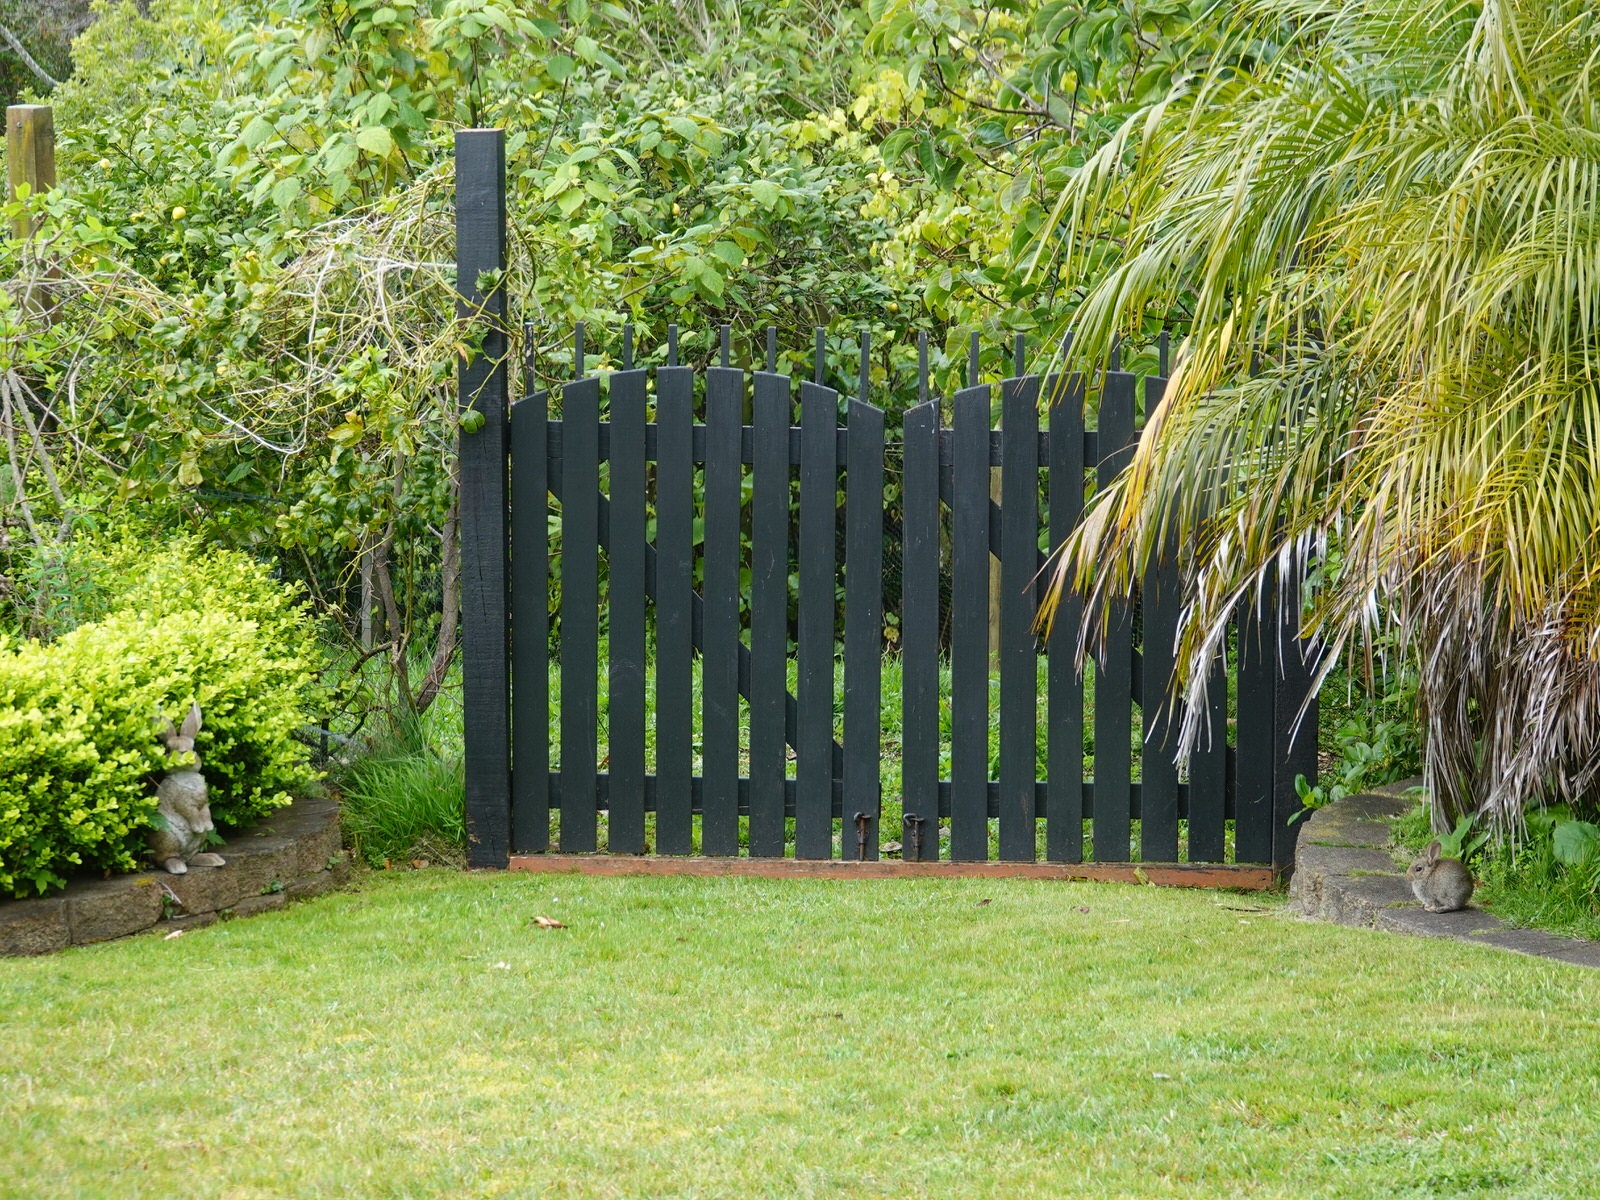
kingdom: Animalia
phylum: Chordata
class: Mammalia
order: Lagomorpha
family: Leporidae
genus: Oryctolagus
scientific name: Oryctolagus cuniculus
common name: European rabbit
